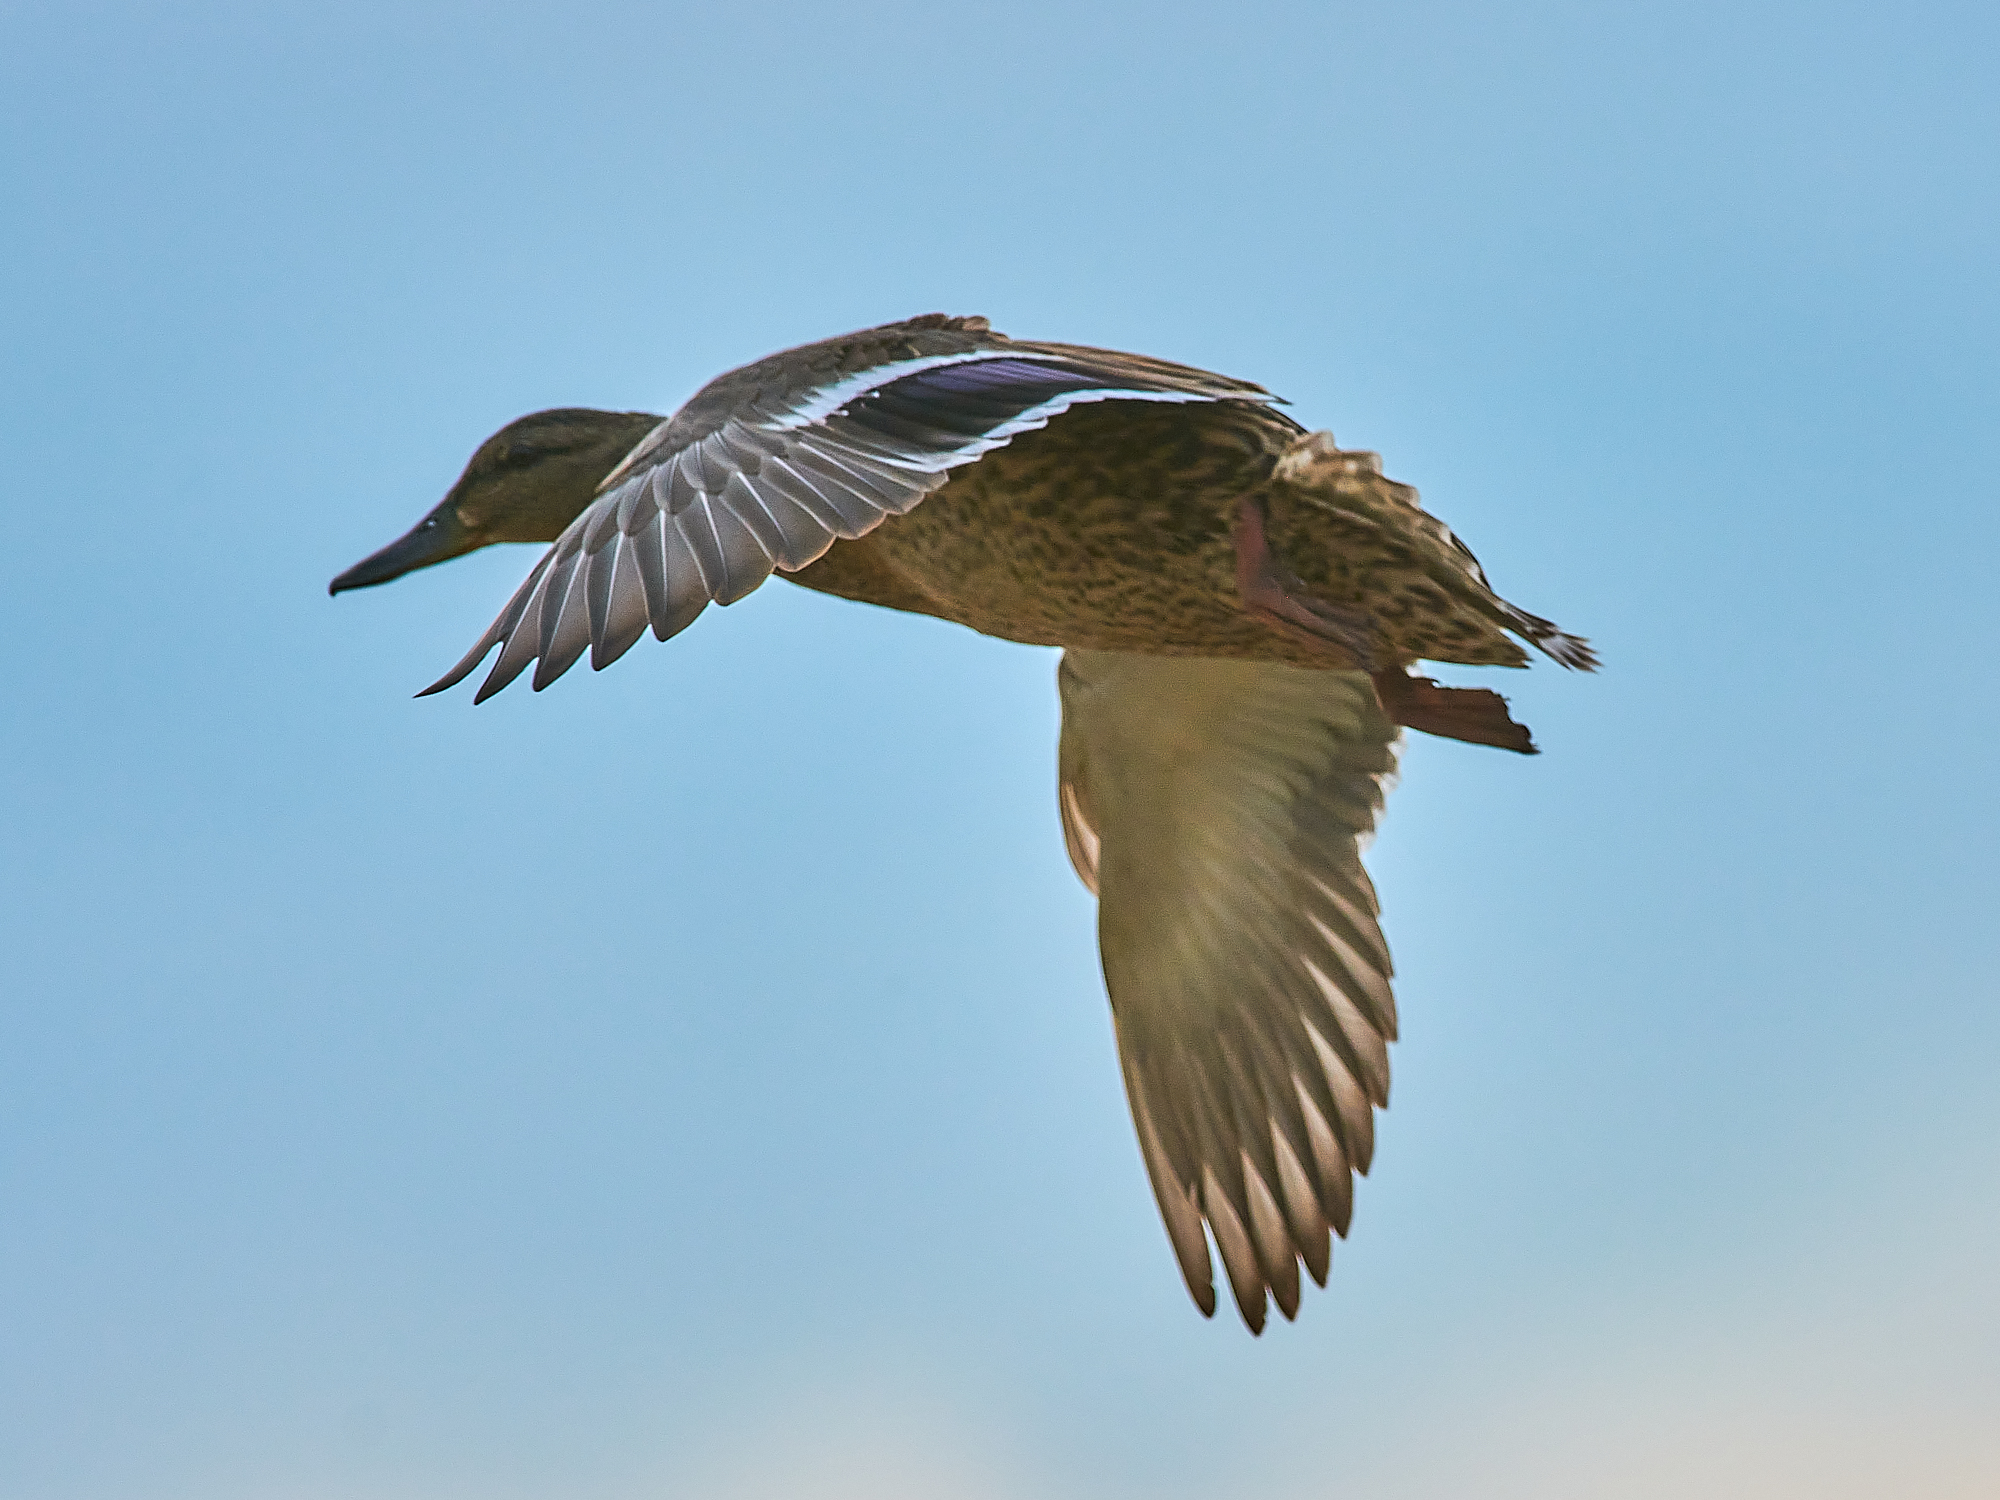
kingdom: Animalia
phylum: Chordata
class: Aves
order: Anseriformes
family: Anatidae
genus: Anas
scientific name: Anas platyrhynchos
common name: Mallard
